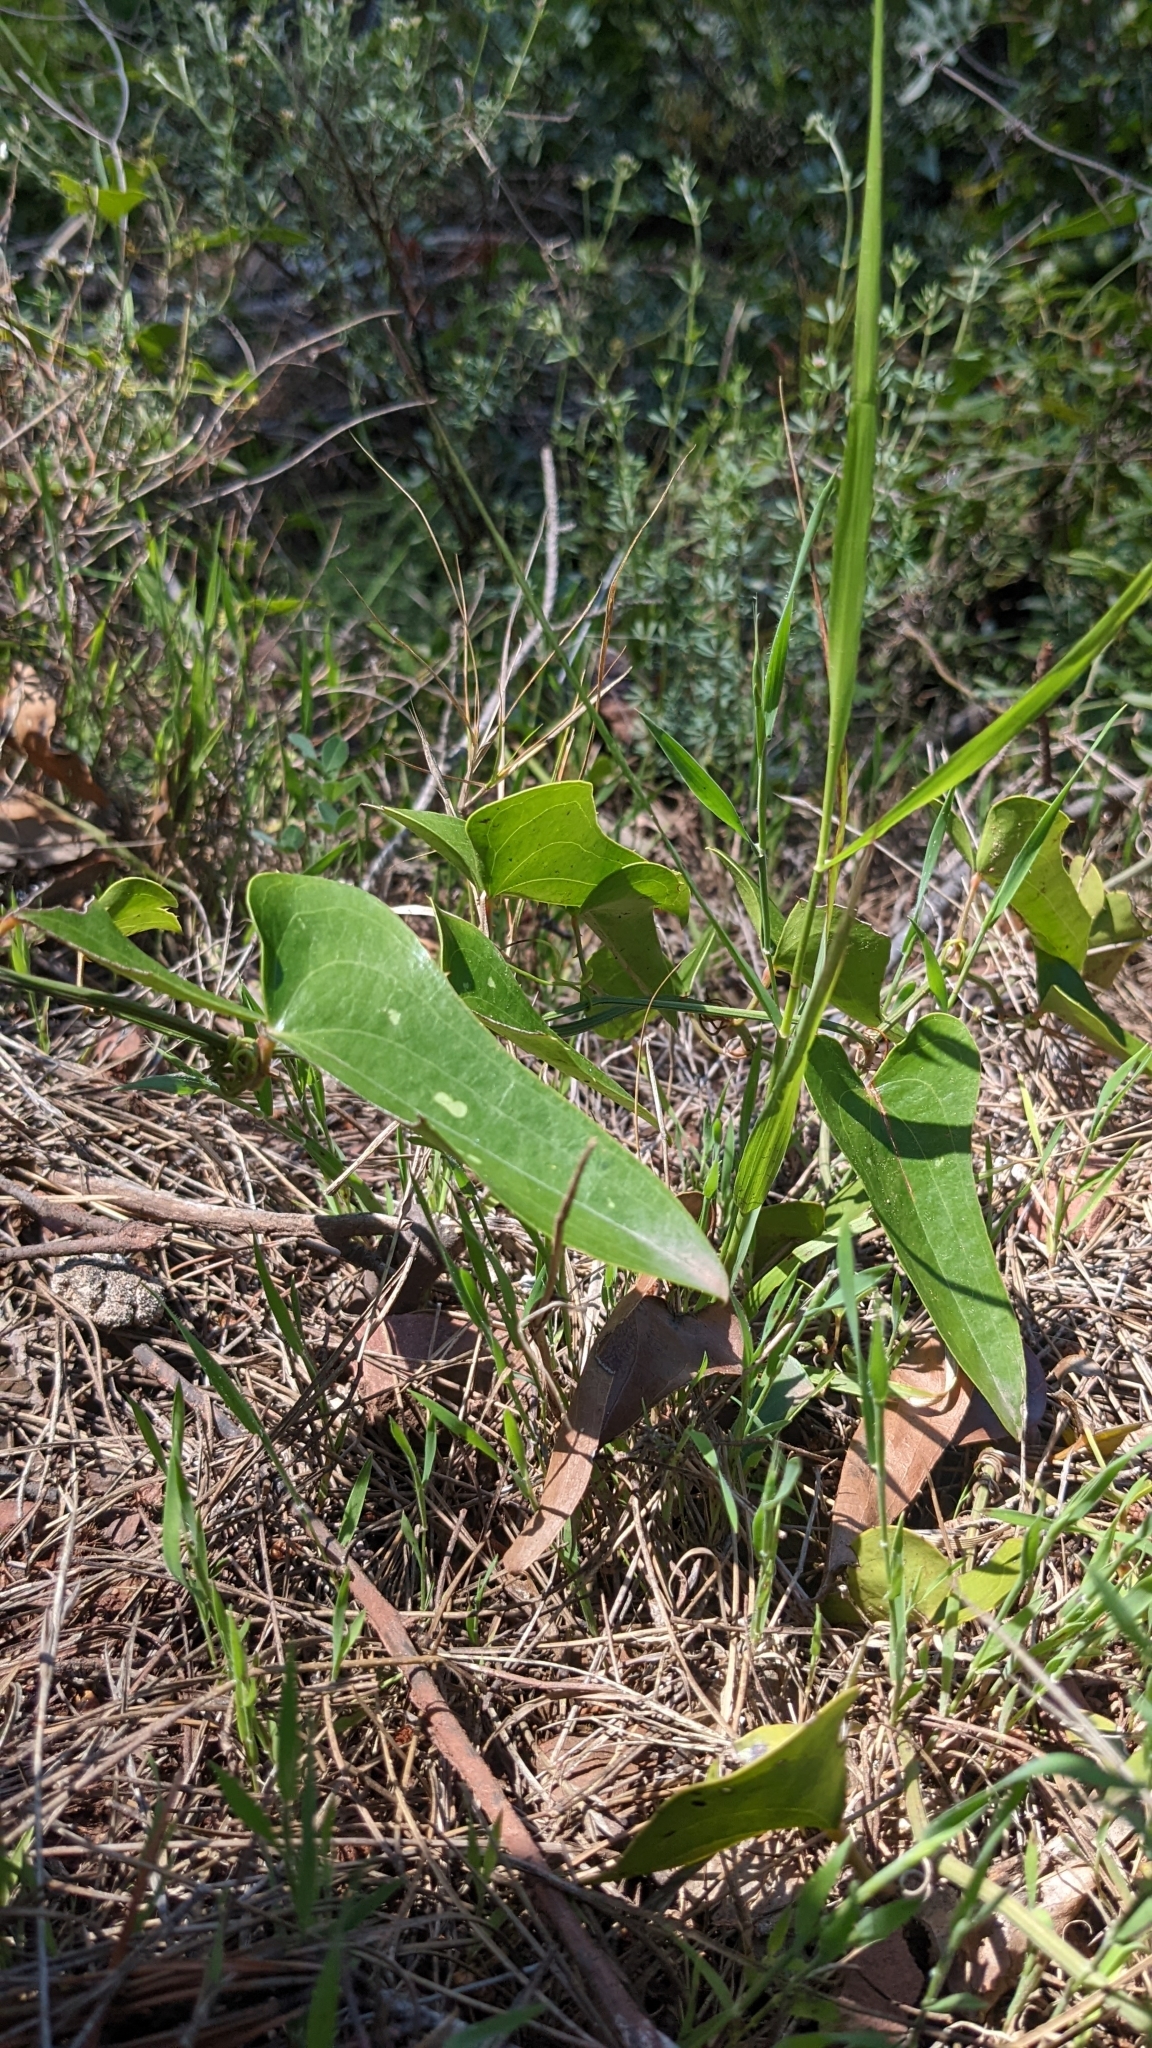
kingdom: Plantae
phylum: Tracheophyta
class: Liliopsida
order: Liliales
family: Smilacaceae
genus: Smilax
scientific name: Smilax aspera
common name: Common smilax
